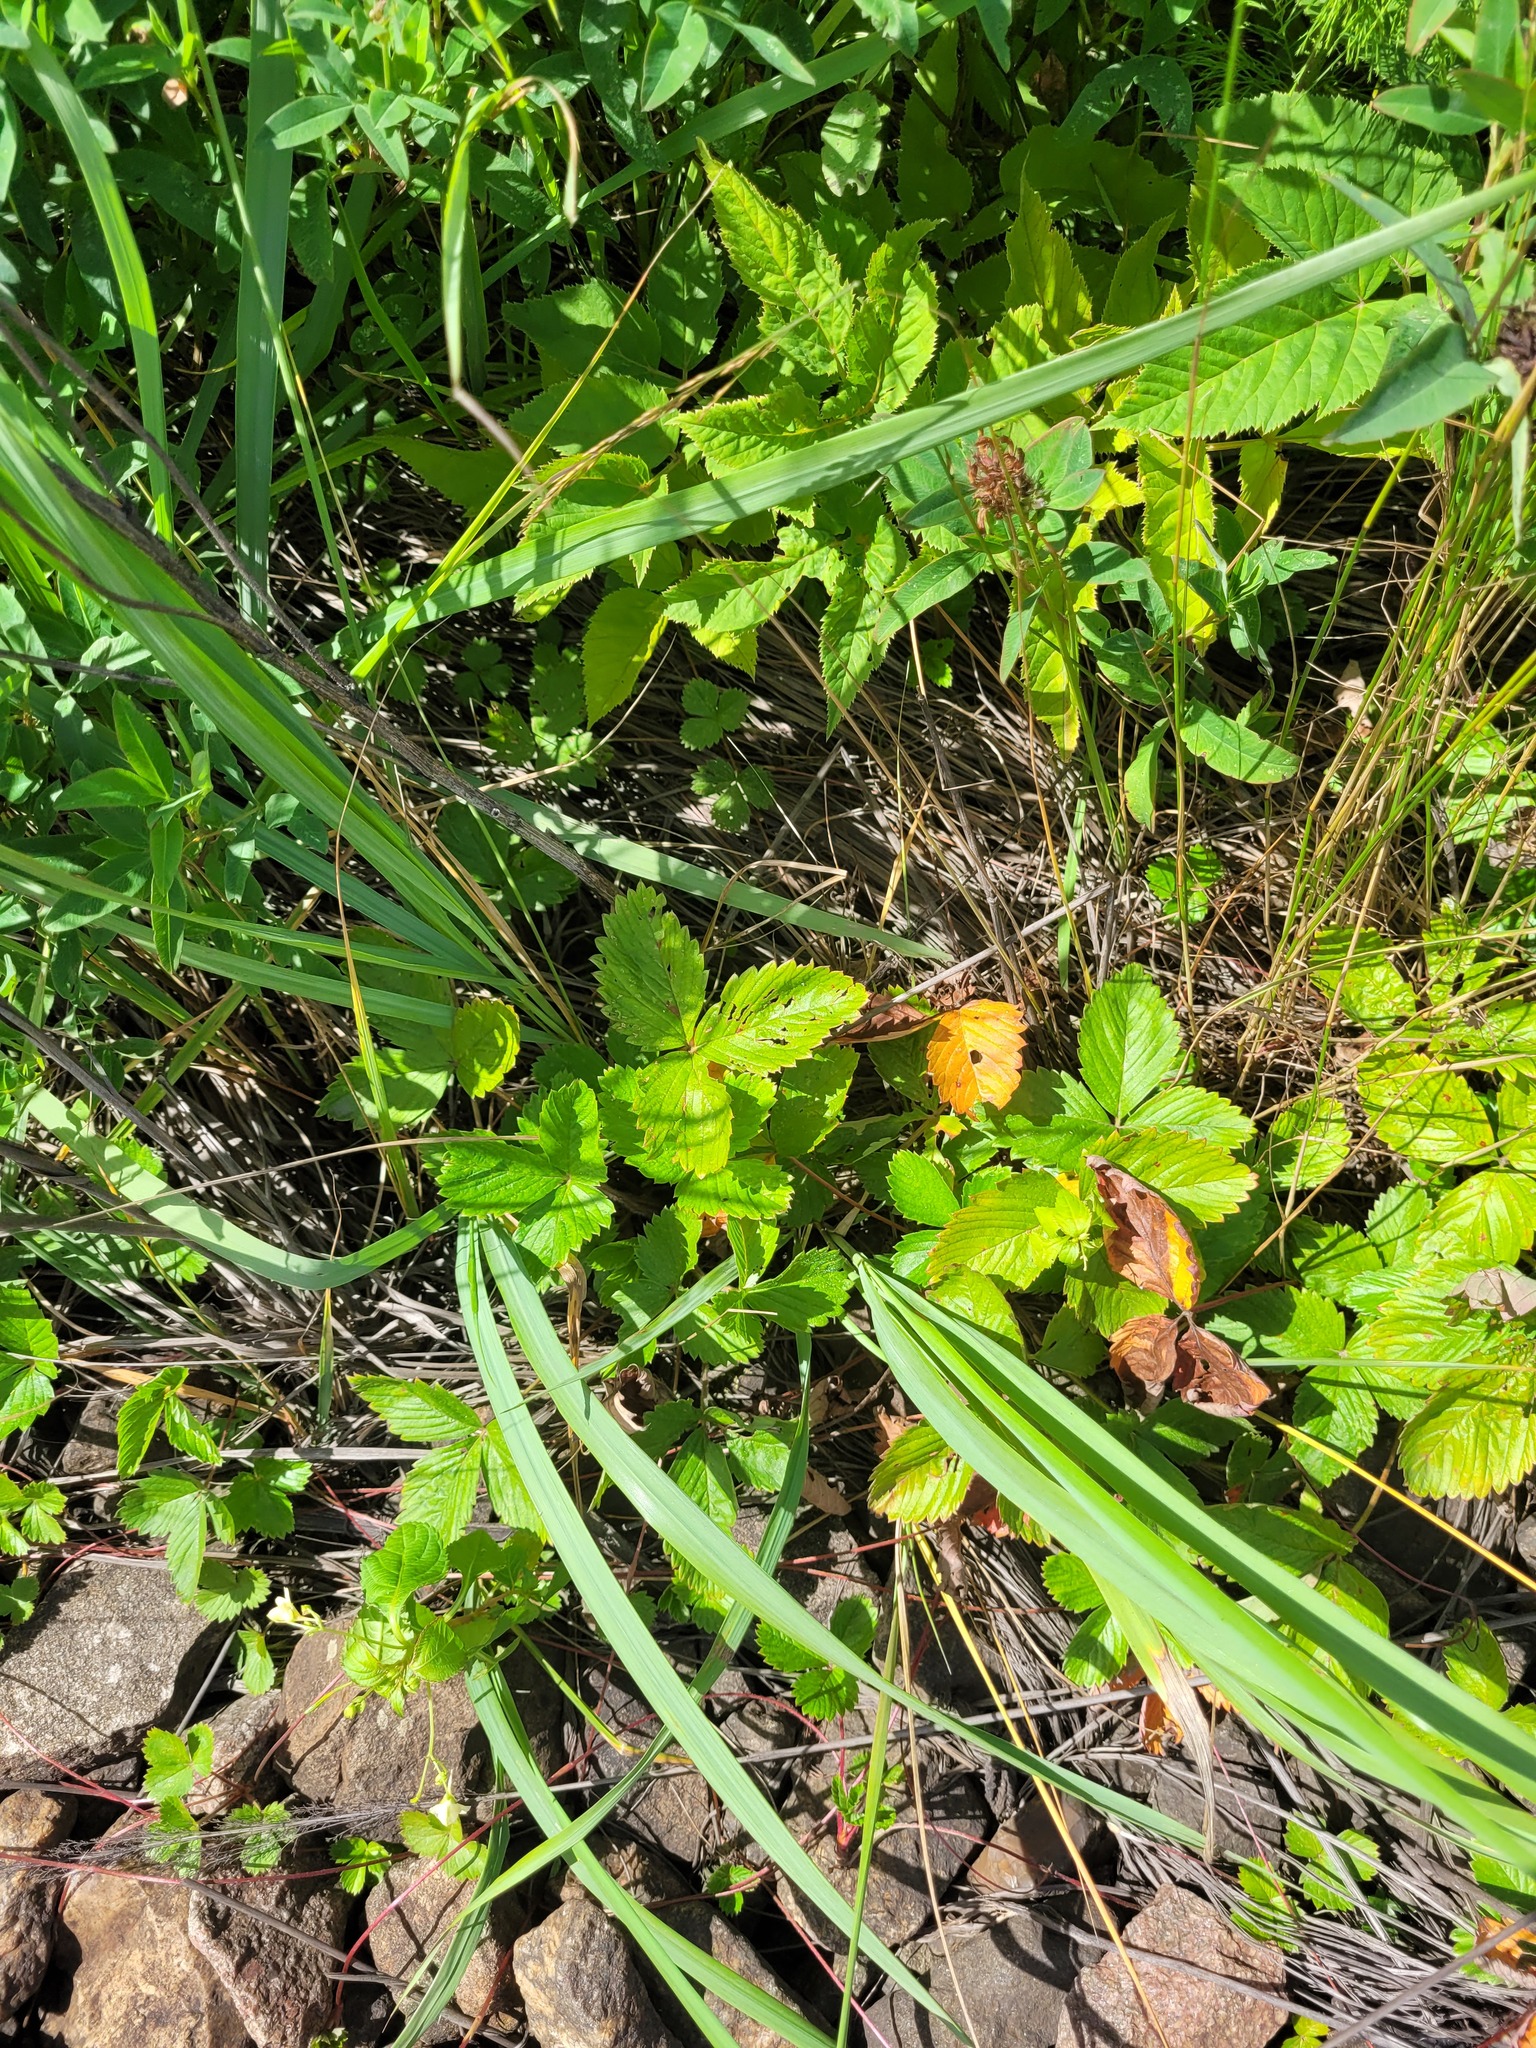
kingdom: Plantae
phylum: Tracheophyta
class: Magnoliopsida
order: Rosales
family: Rosaceae
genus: Fragaria
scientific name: Fragaria vesca
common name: Wild strawberry
